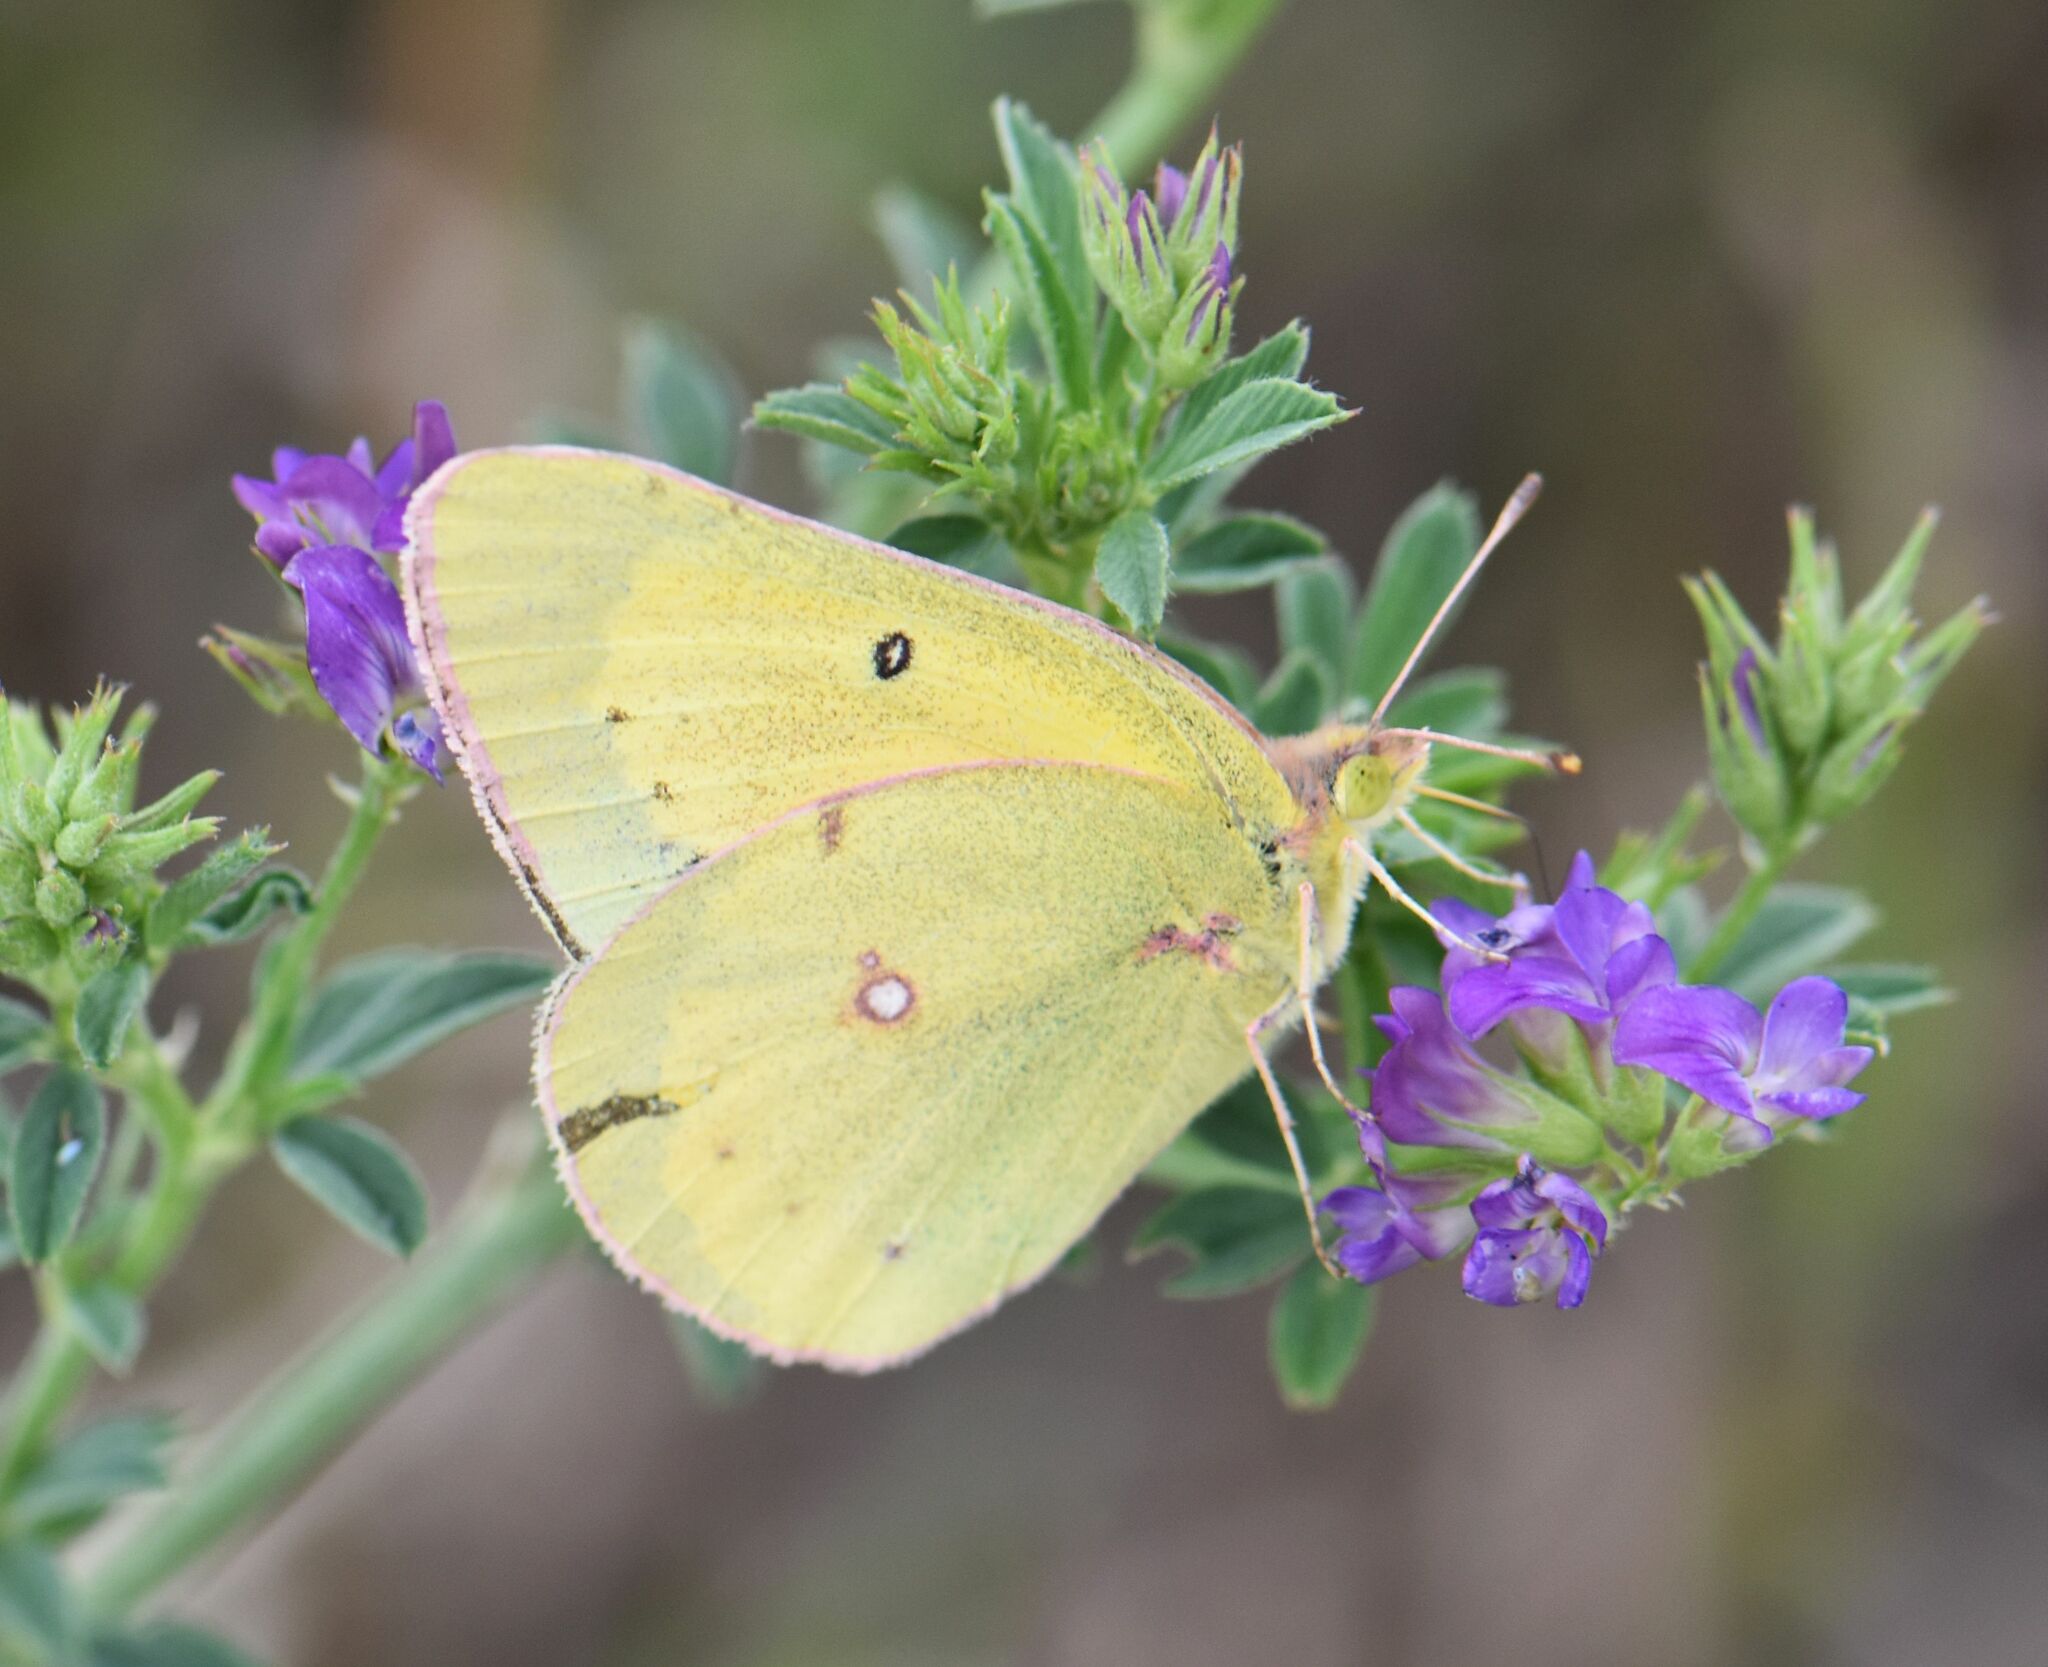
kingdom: Animalia
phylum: Arthropoda
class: Insecta
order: Lepidoptera
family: Pieridae
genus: Colias
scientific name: Colias philodice
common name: Clouded sulphur
